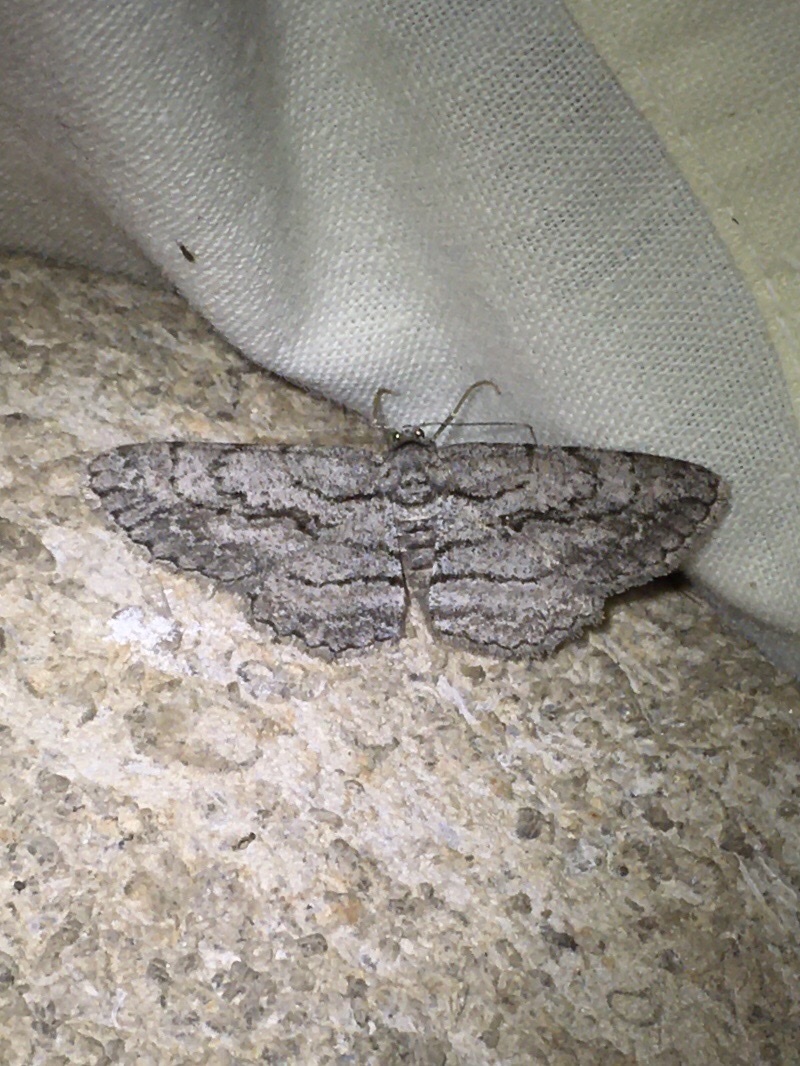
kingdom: Animalia
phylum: Arthropoda
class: Insecta
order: Lepidoptera
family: Geometridae
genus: Anavitrinella
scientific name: Anavitrinella pampinaria
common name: Common gray
